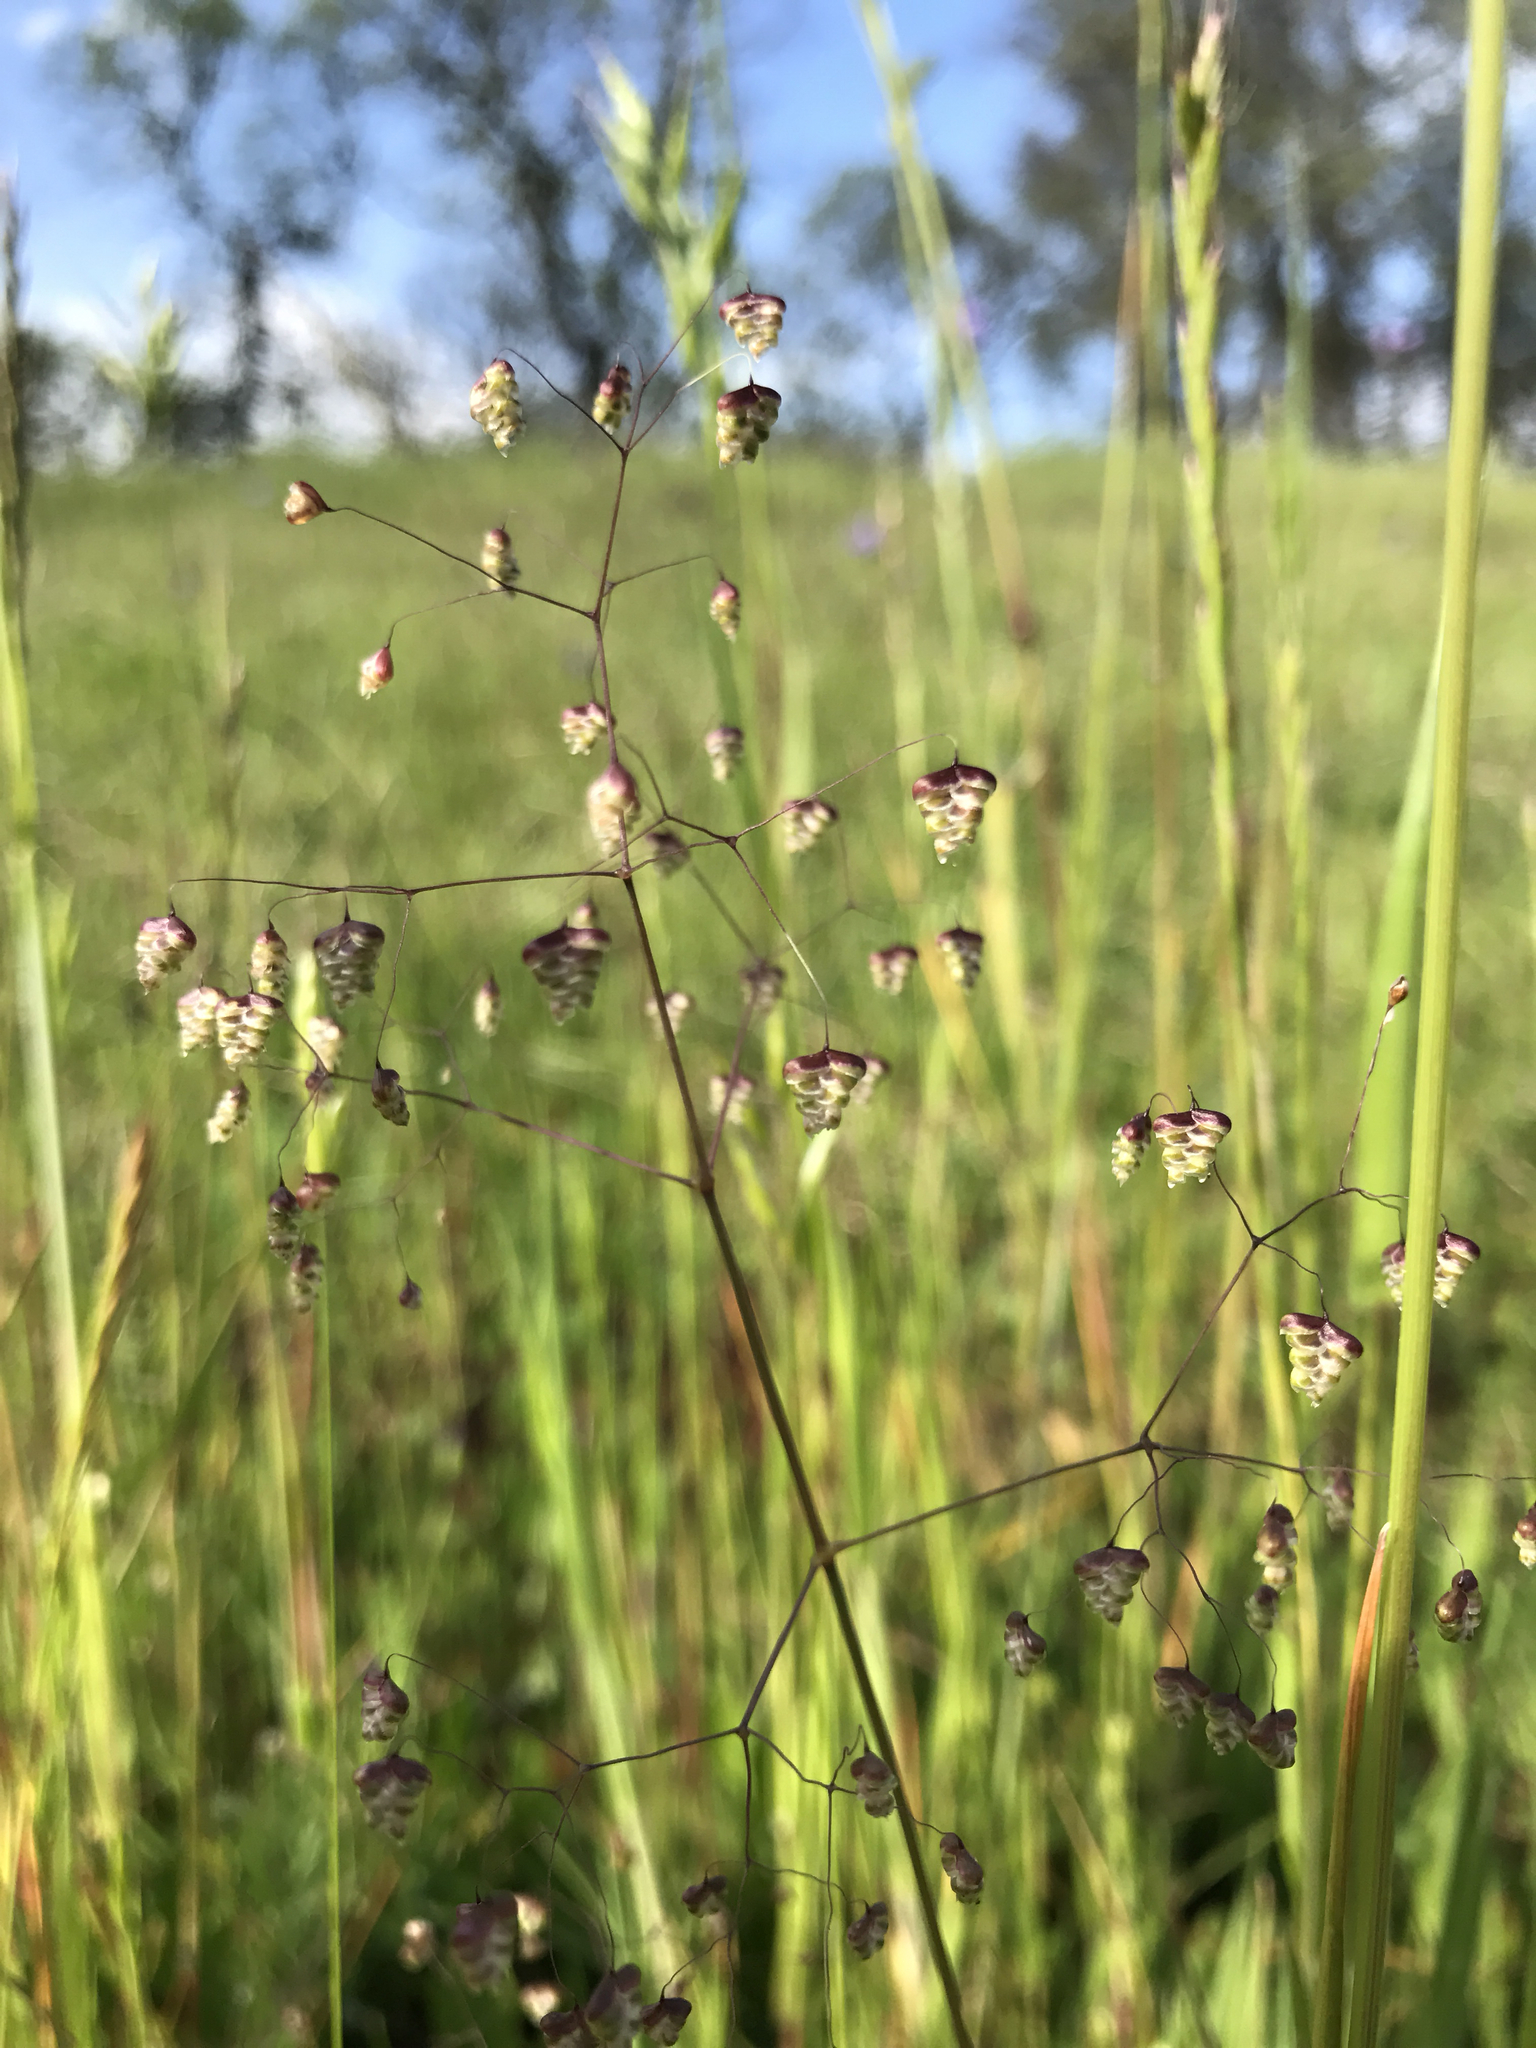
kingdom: Plantae
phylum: Tracheophyta
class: Liliopsida
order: Poales
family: Poaceae
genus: Briza
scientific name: Briza minor
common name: Lesser quaking-grass
